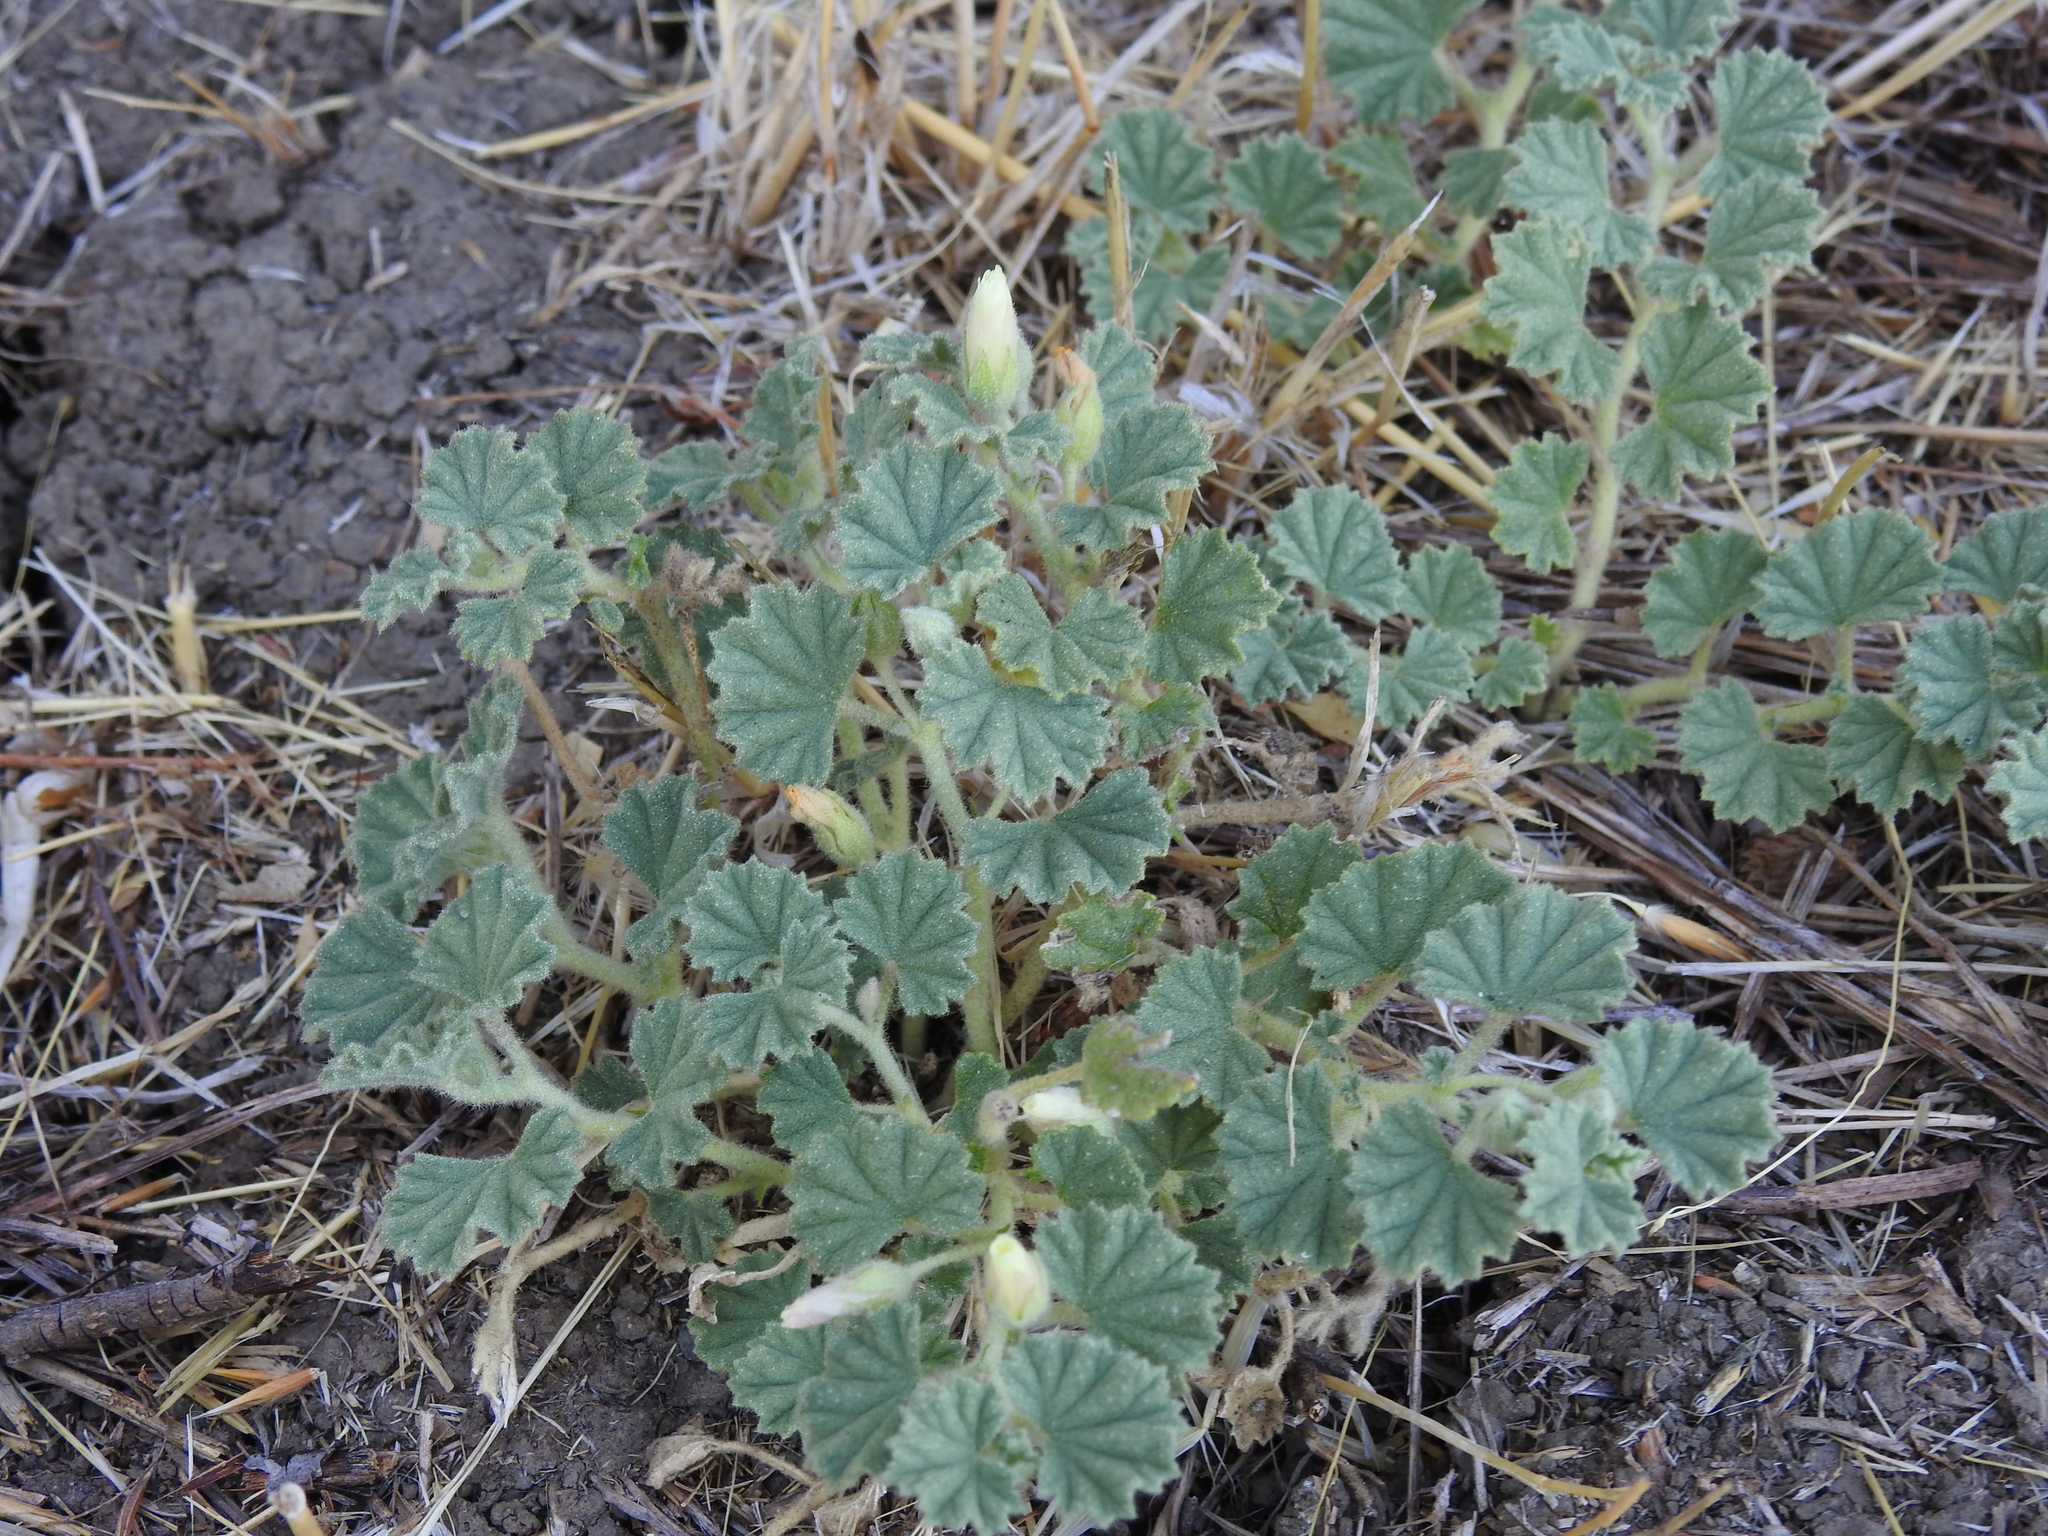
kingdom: Plantae
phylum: Tracheophyta
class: Magnoliopsida
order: Malvales
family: Malvaceae
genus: Malvella
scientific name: Malvella leprosa
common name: Alkali-mallow
